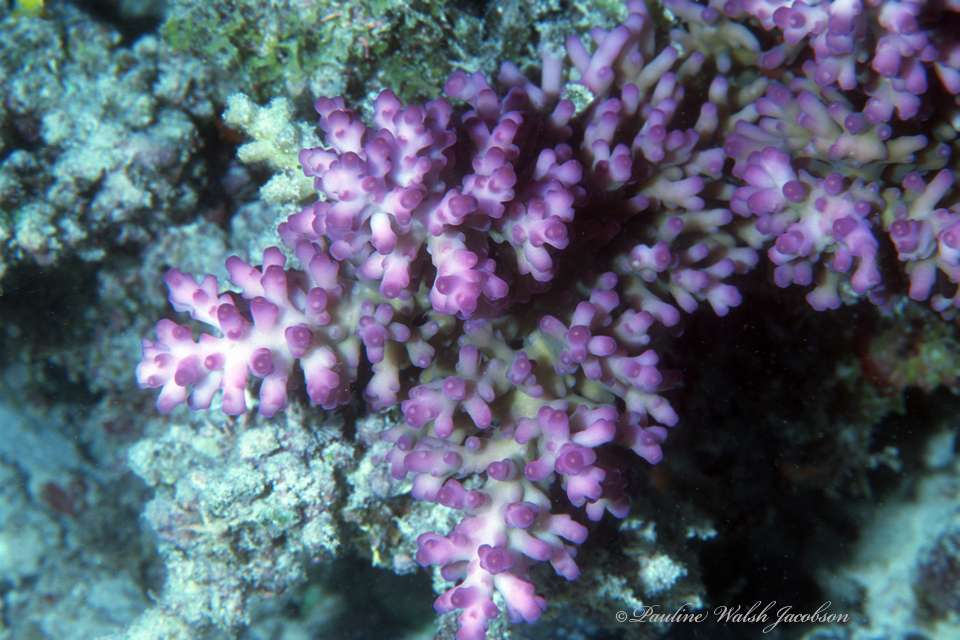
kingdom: Animalia
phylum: Cnidaria
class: Anthozoa
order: Scleractinia
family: Acroporidae
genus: Acropora
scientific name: Acropora granulosa
